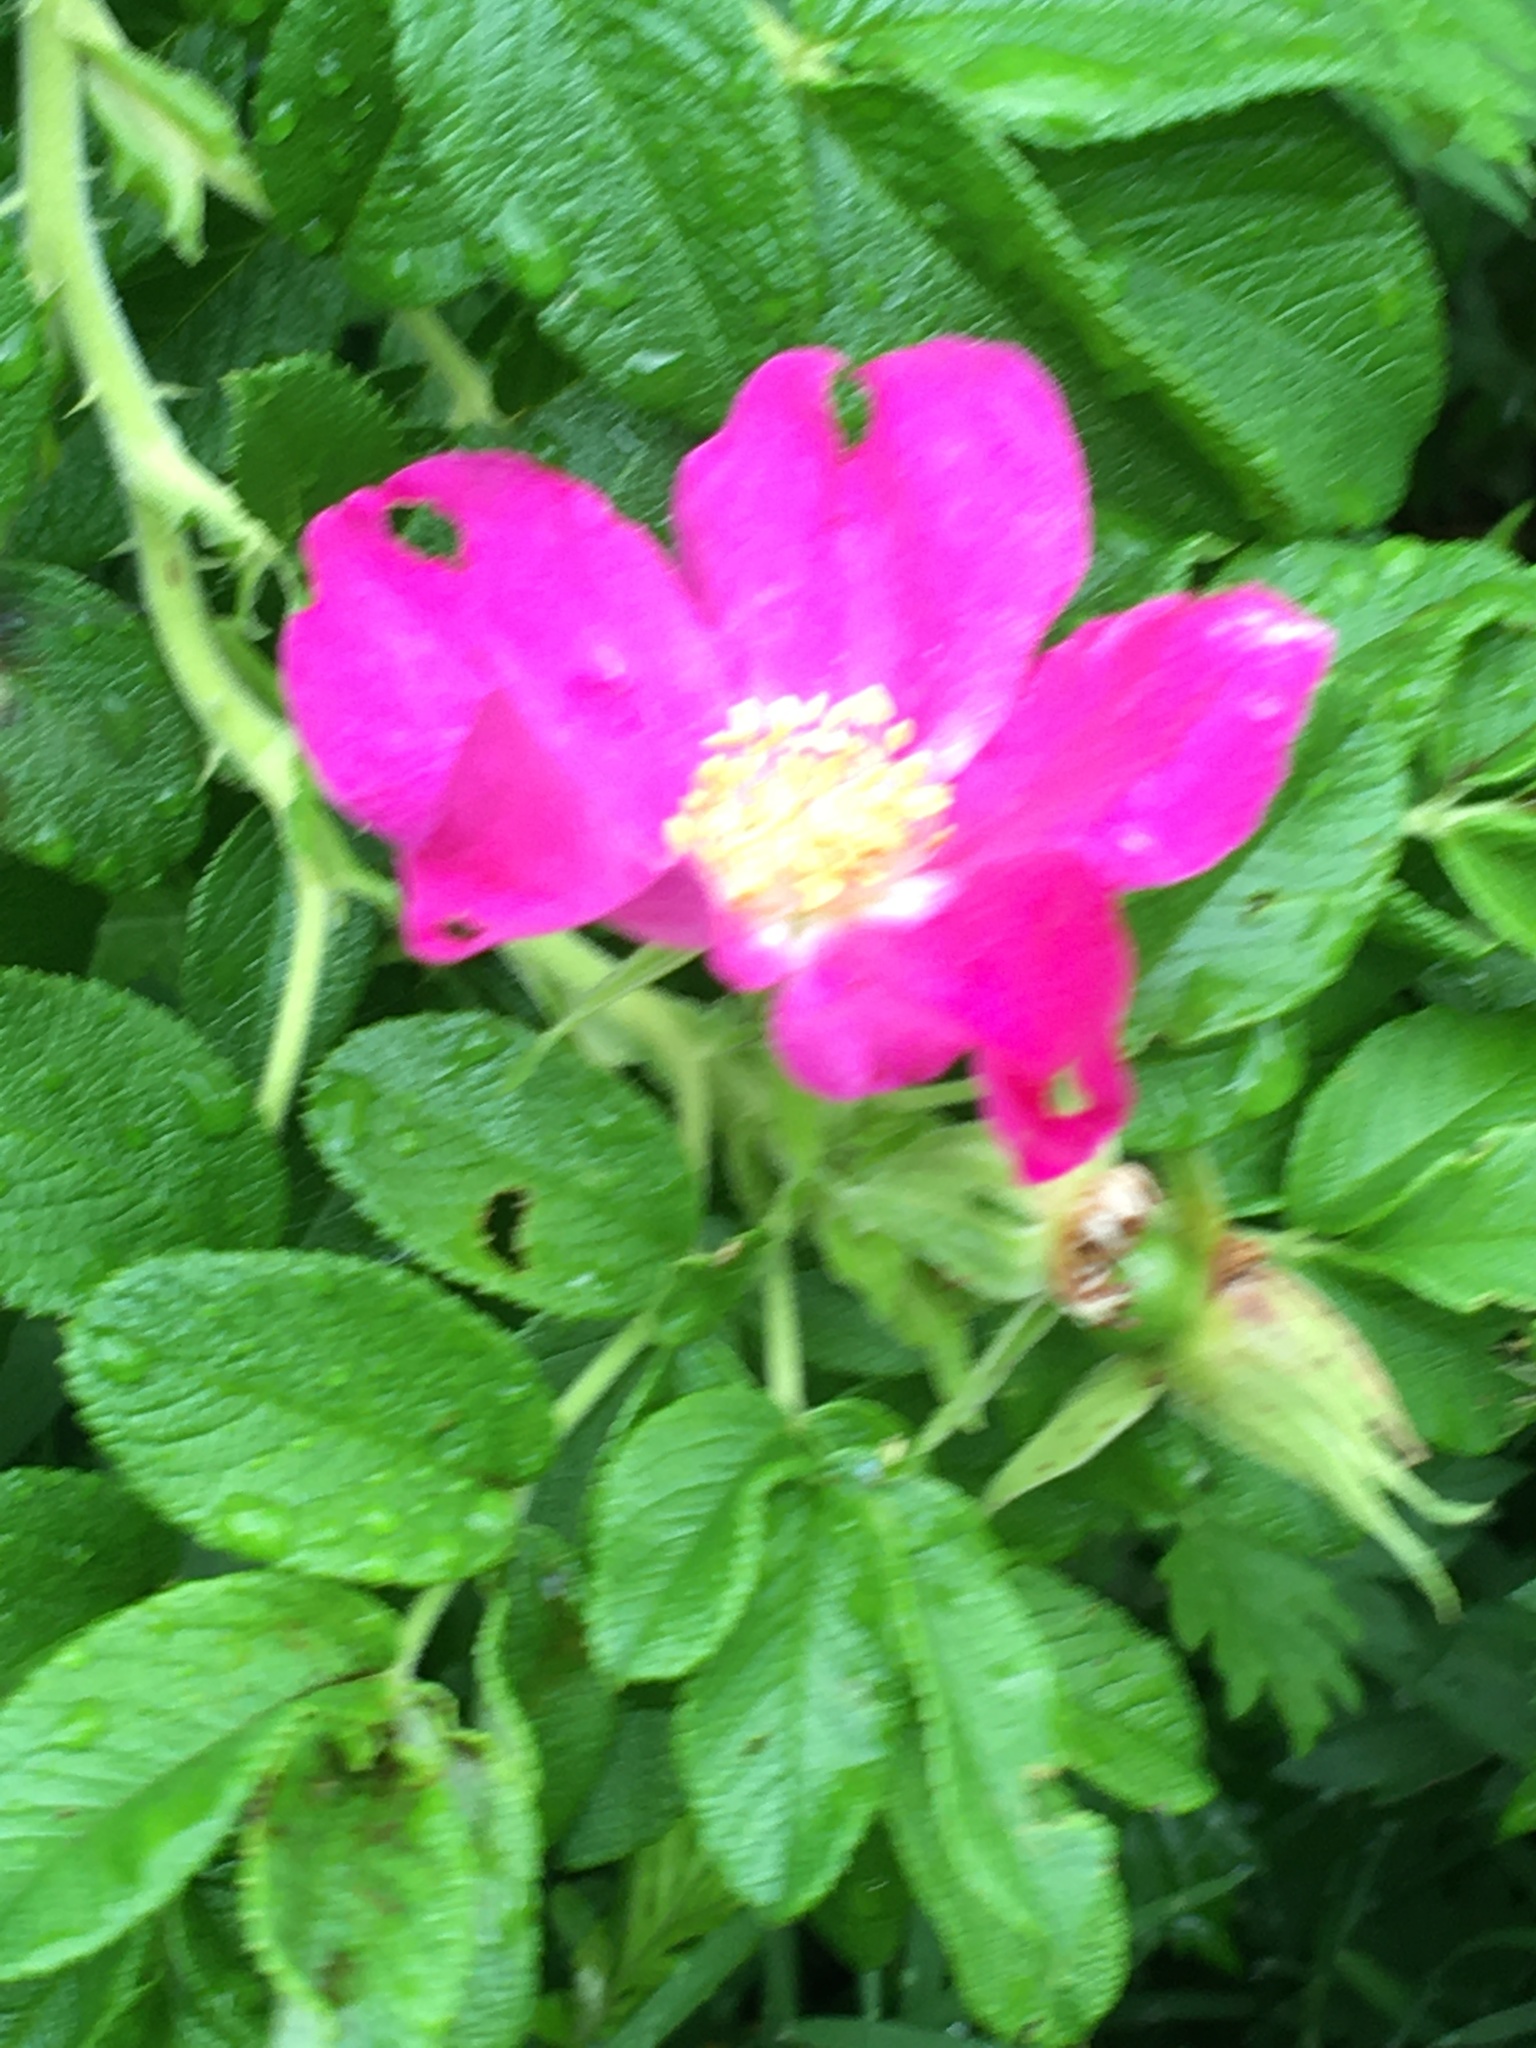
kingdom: Plantae
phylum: Tracheophyta
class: Magnoliopsida
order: Rosales
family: Rosaceae
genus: Rosa
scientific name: Rosa rugosa
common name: Japanese rose
